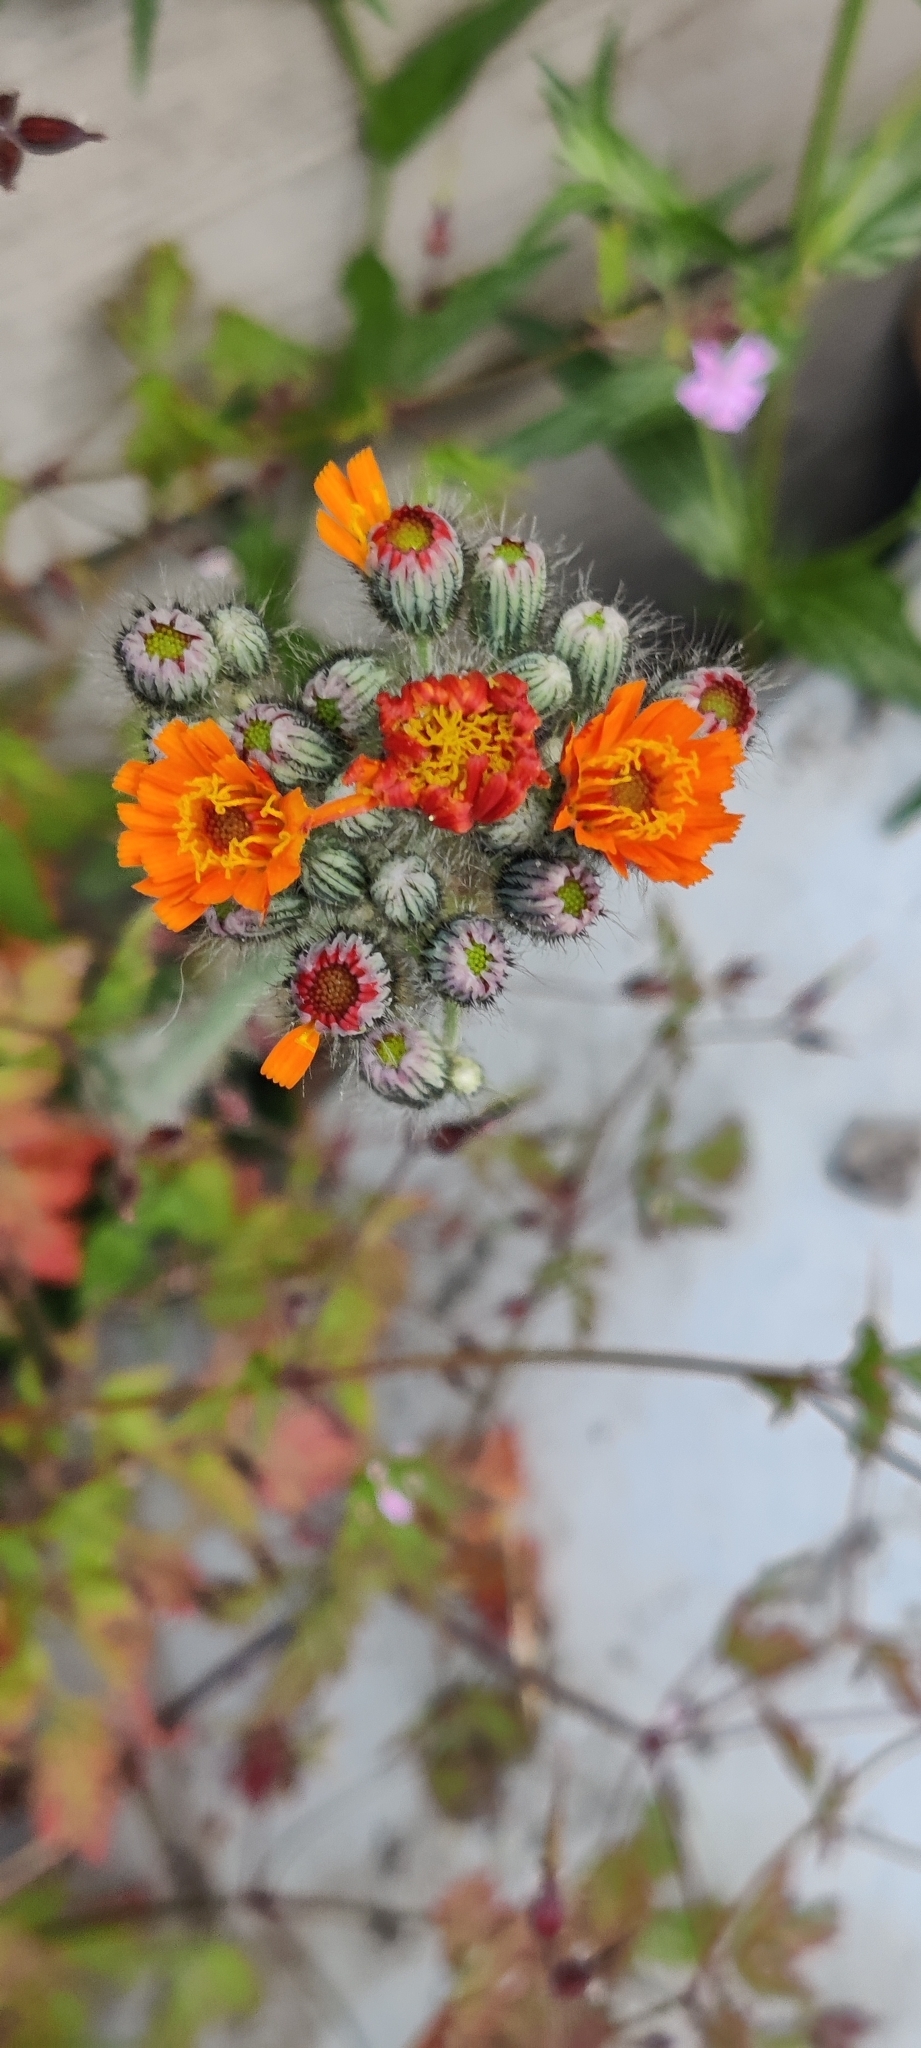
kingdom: Plantae
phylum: Tracheophyta
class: Magnoliopsida
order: Asterales
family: Asteraceae
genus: Pilosella
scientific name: Pilosella aurantiaca
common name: Fox-and-cubs
